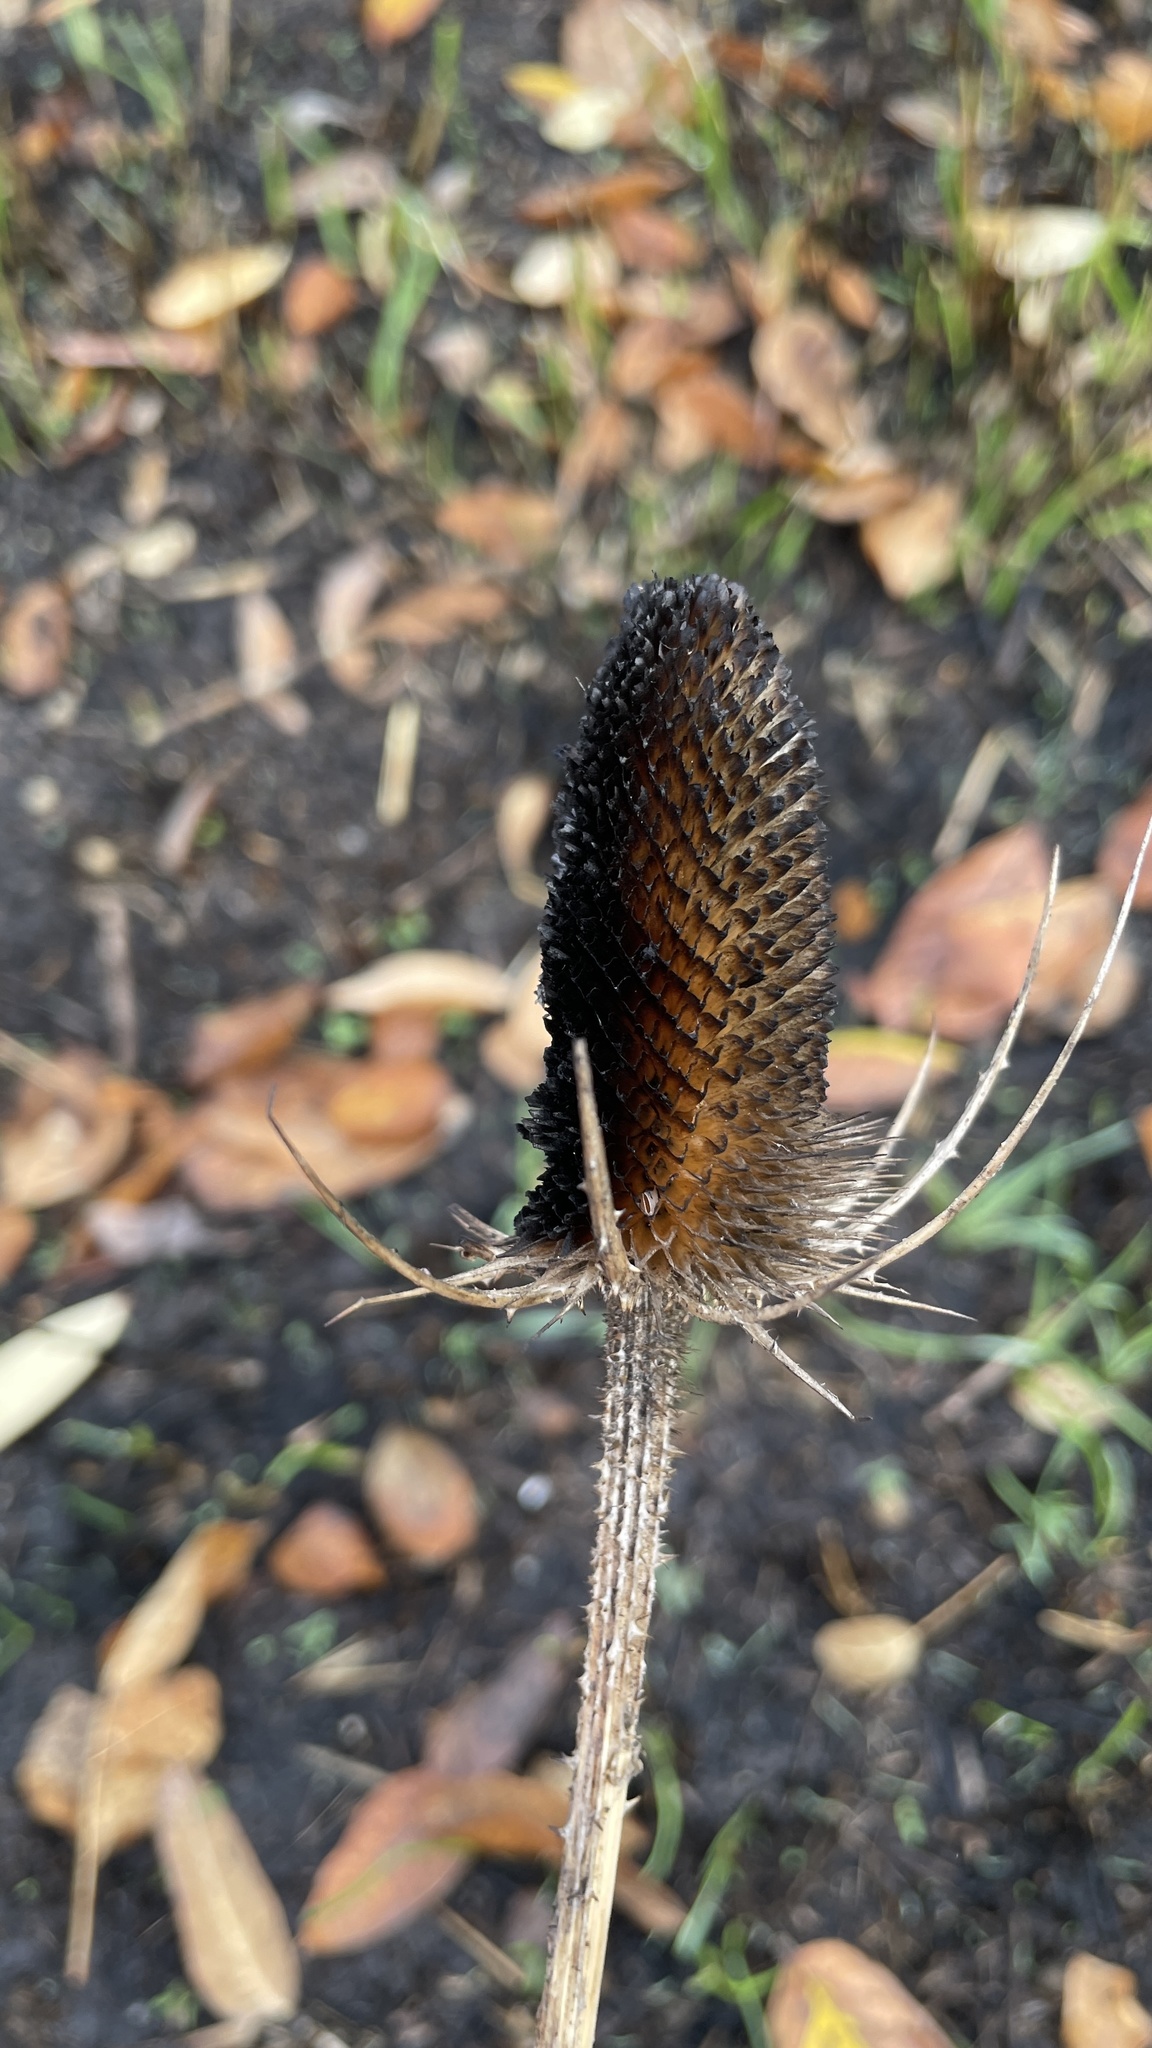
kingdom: Plantae
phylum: Tracheophyta
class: Magnoliopsida
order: Dipsacales
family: Caprifoliaceae
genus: Dipsacus
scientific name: Dipsacus fullonum
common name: Teasel
